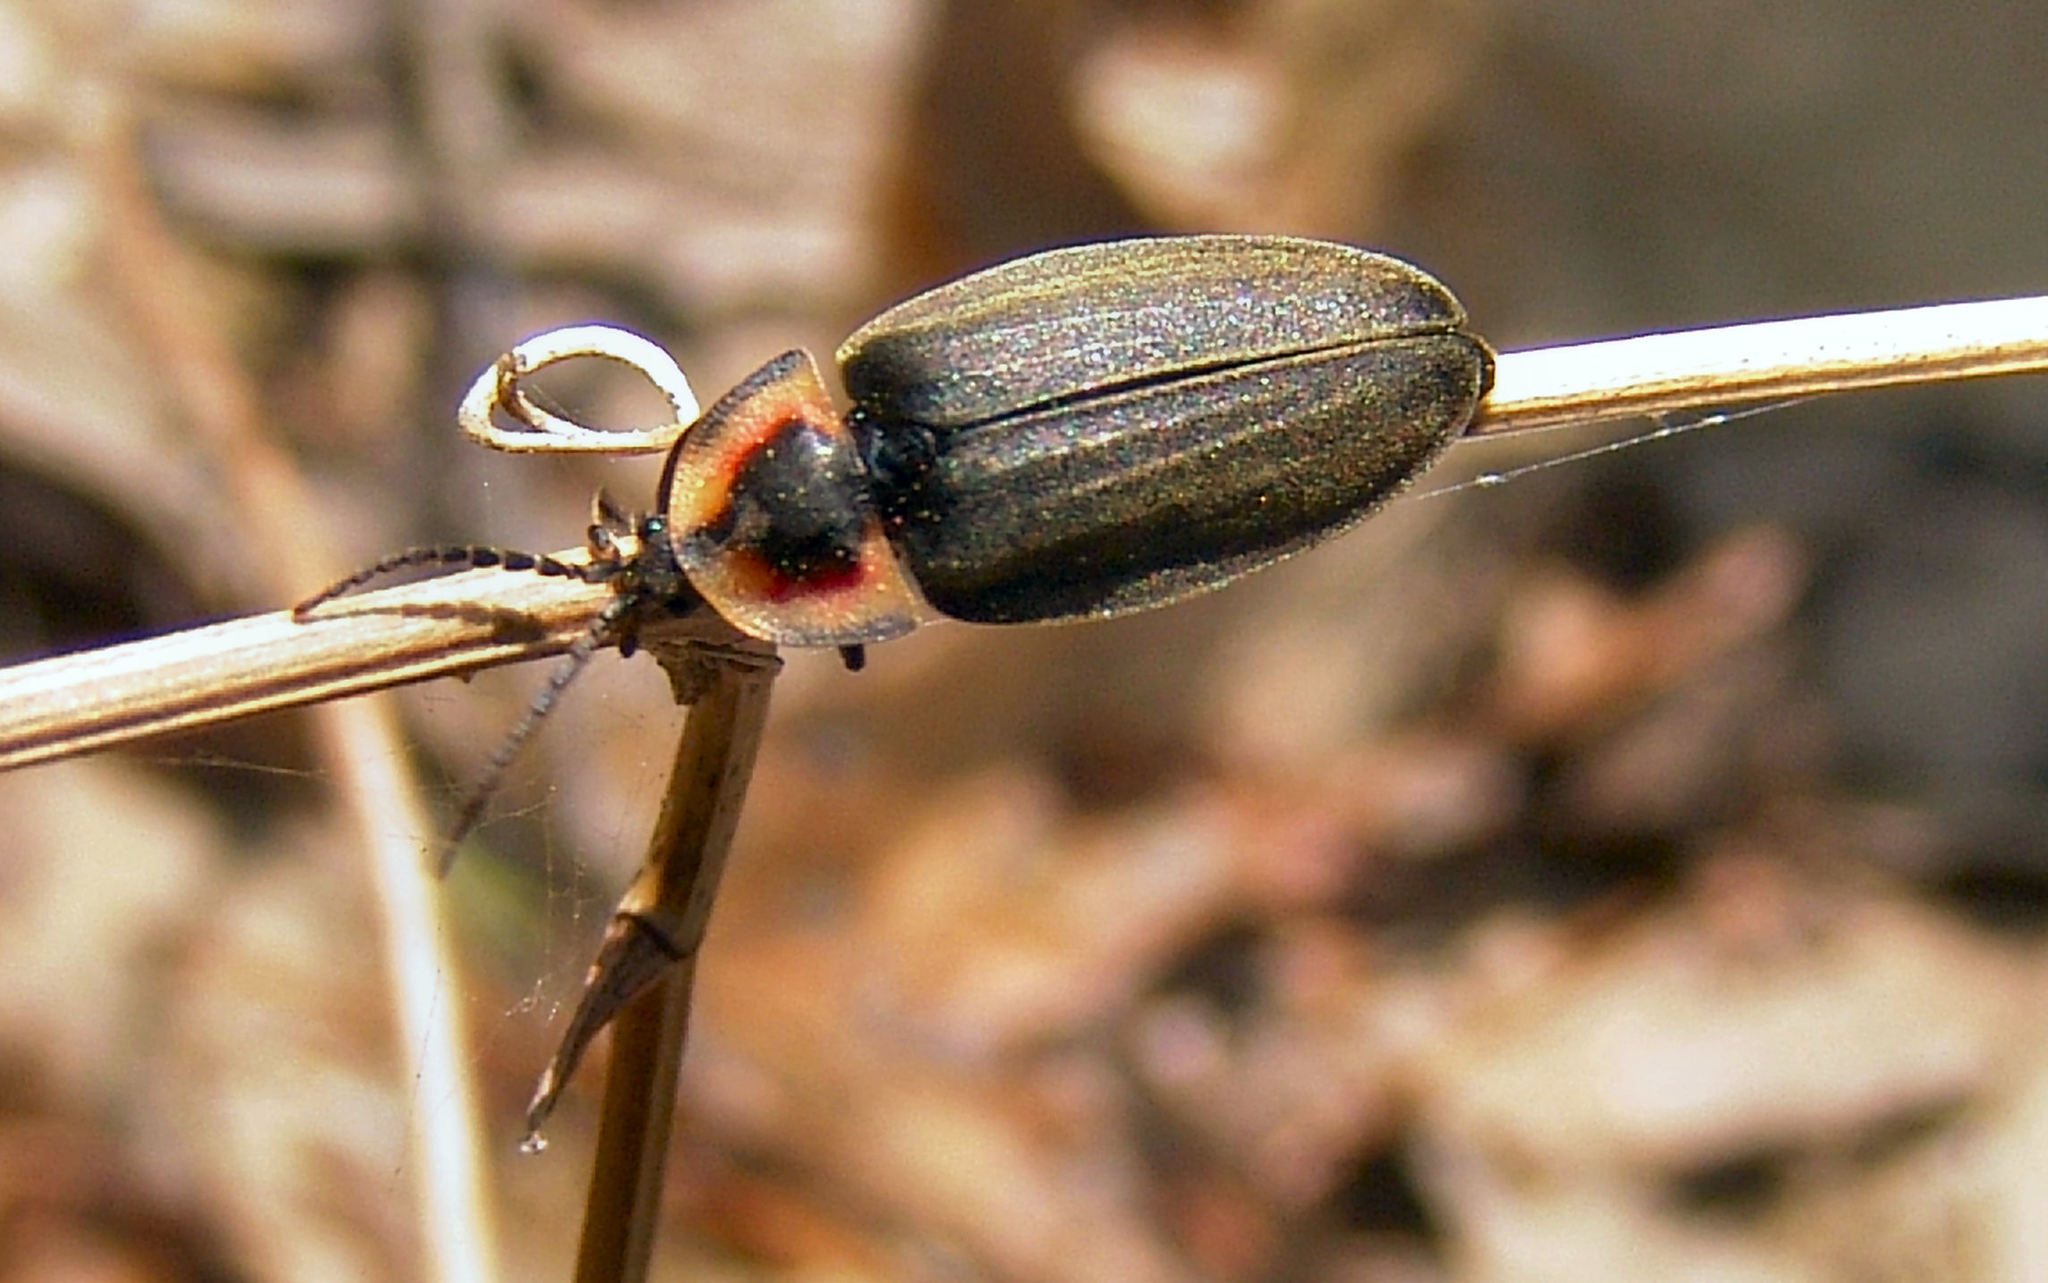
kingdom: Animalia
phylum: Arthropoda
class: Insecta
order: Coleoptera
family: Lampyridae
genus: Photinus
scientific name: Photinus corrusca
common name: Winter firefly
